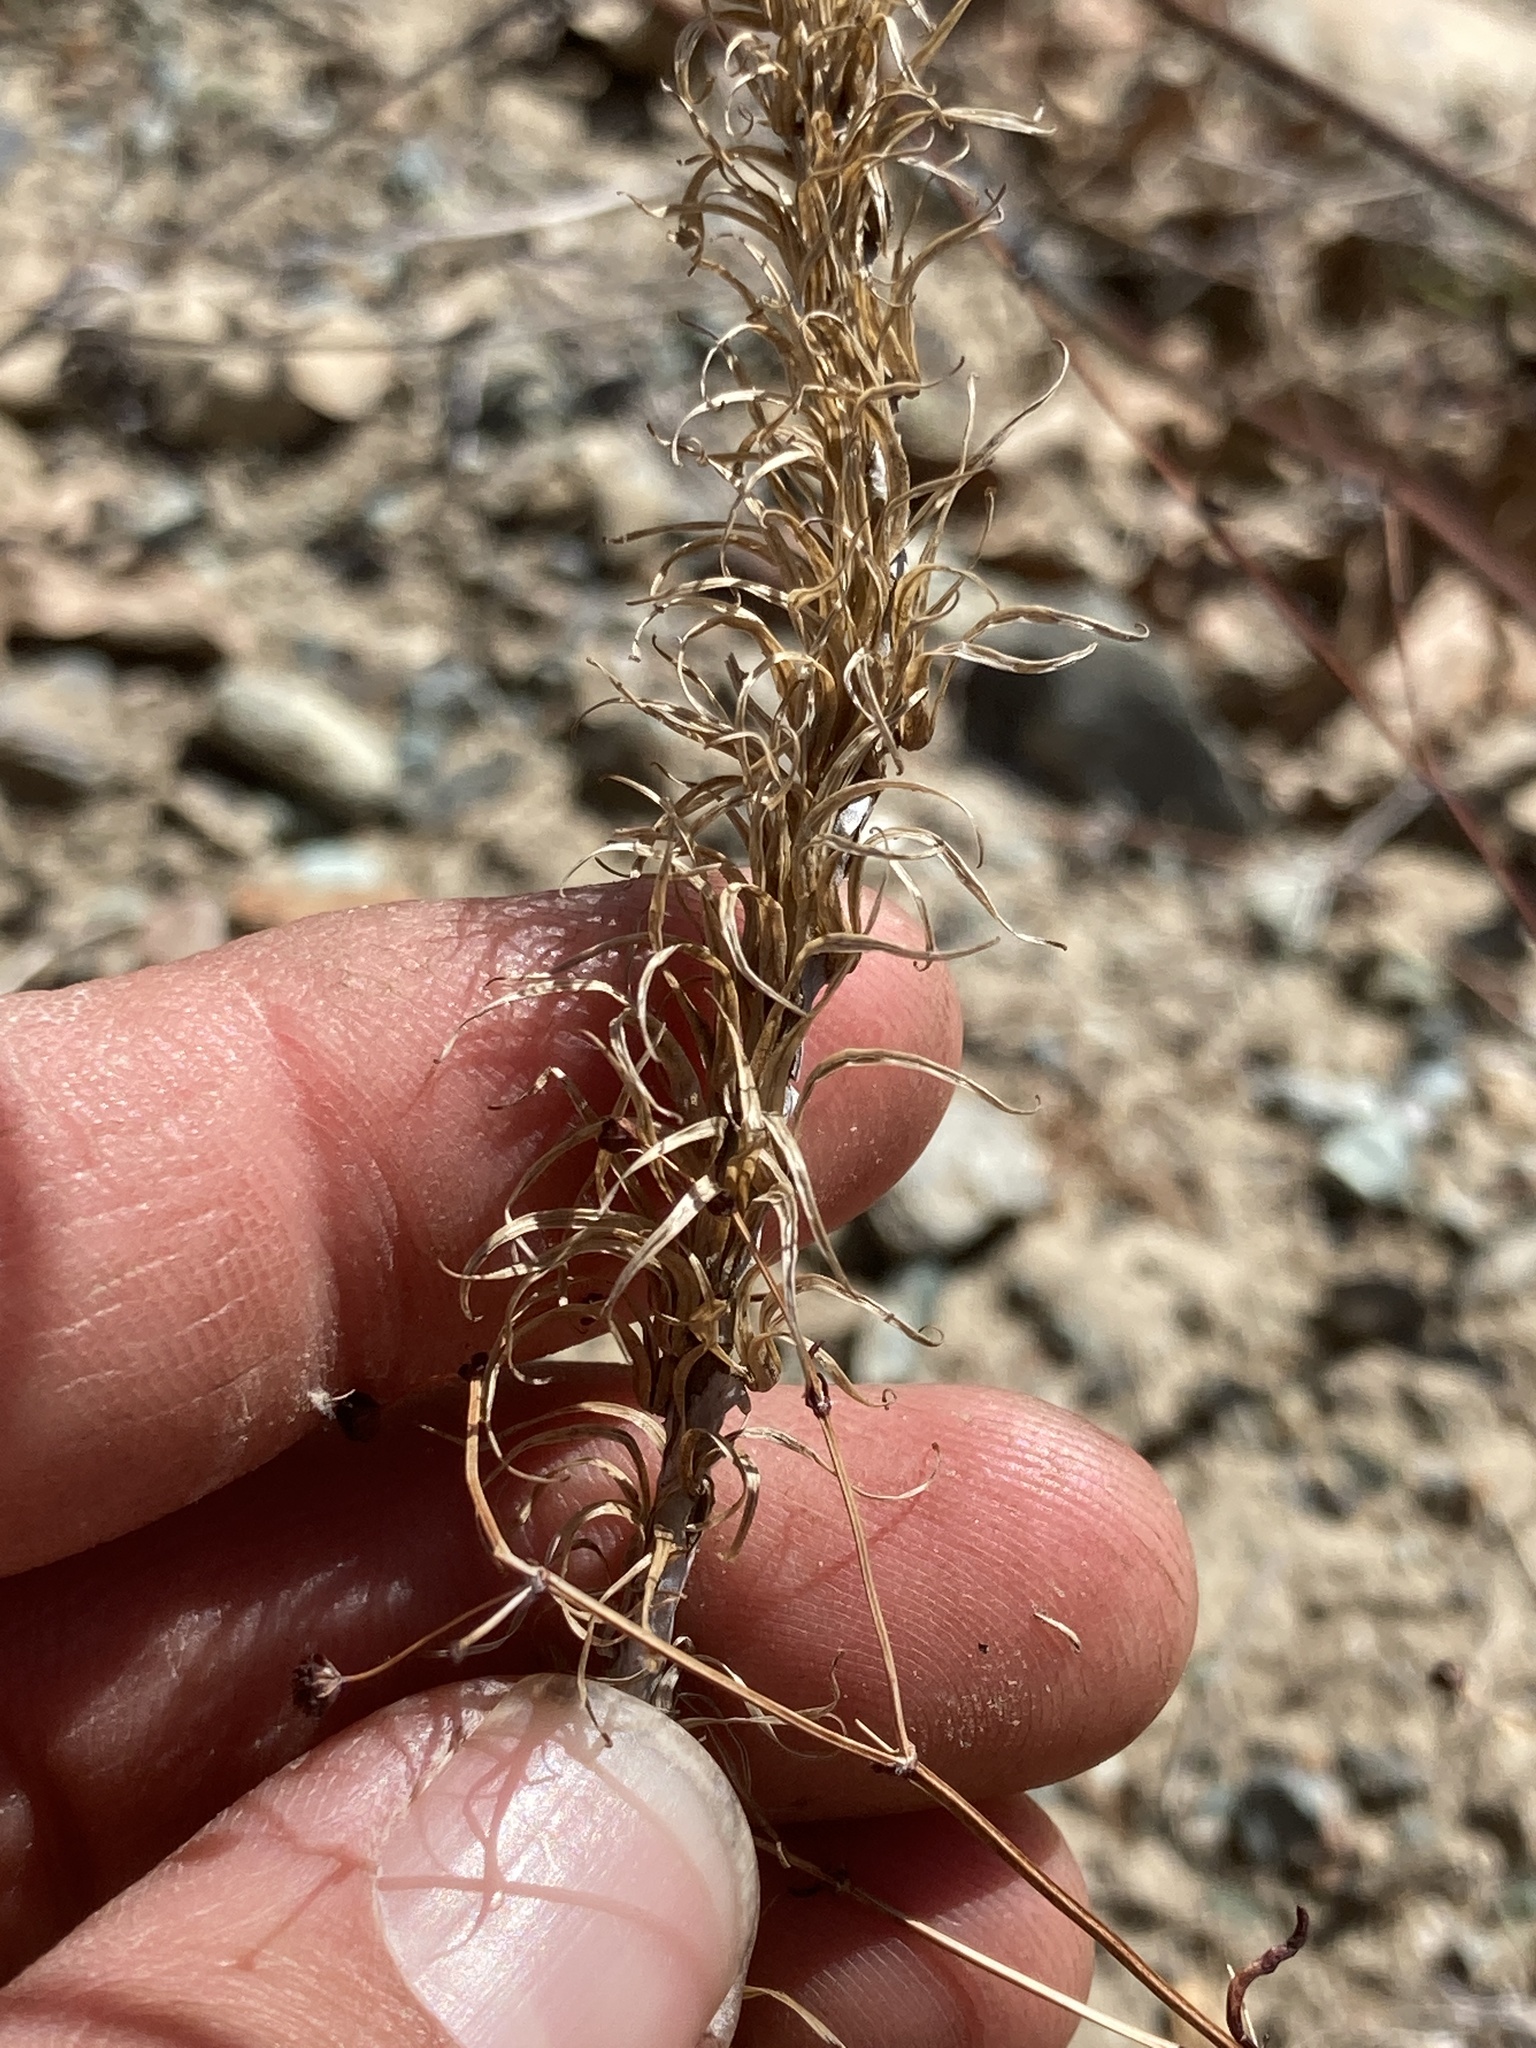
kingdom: Plantae
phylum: Tracheophyta
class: Magnoliopsida
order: Myrtales
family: Onagraceae
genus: Eremothera
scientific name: Eremothera boothii
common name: Booth's evening primrose
